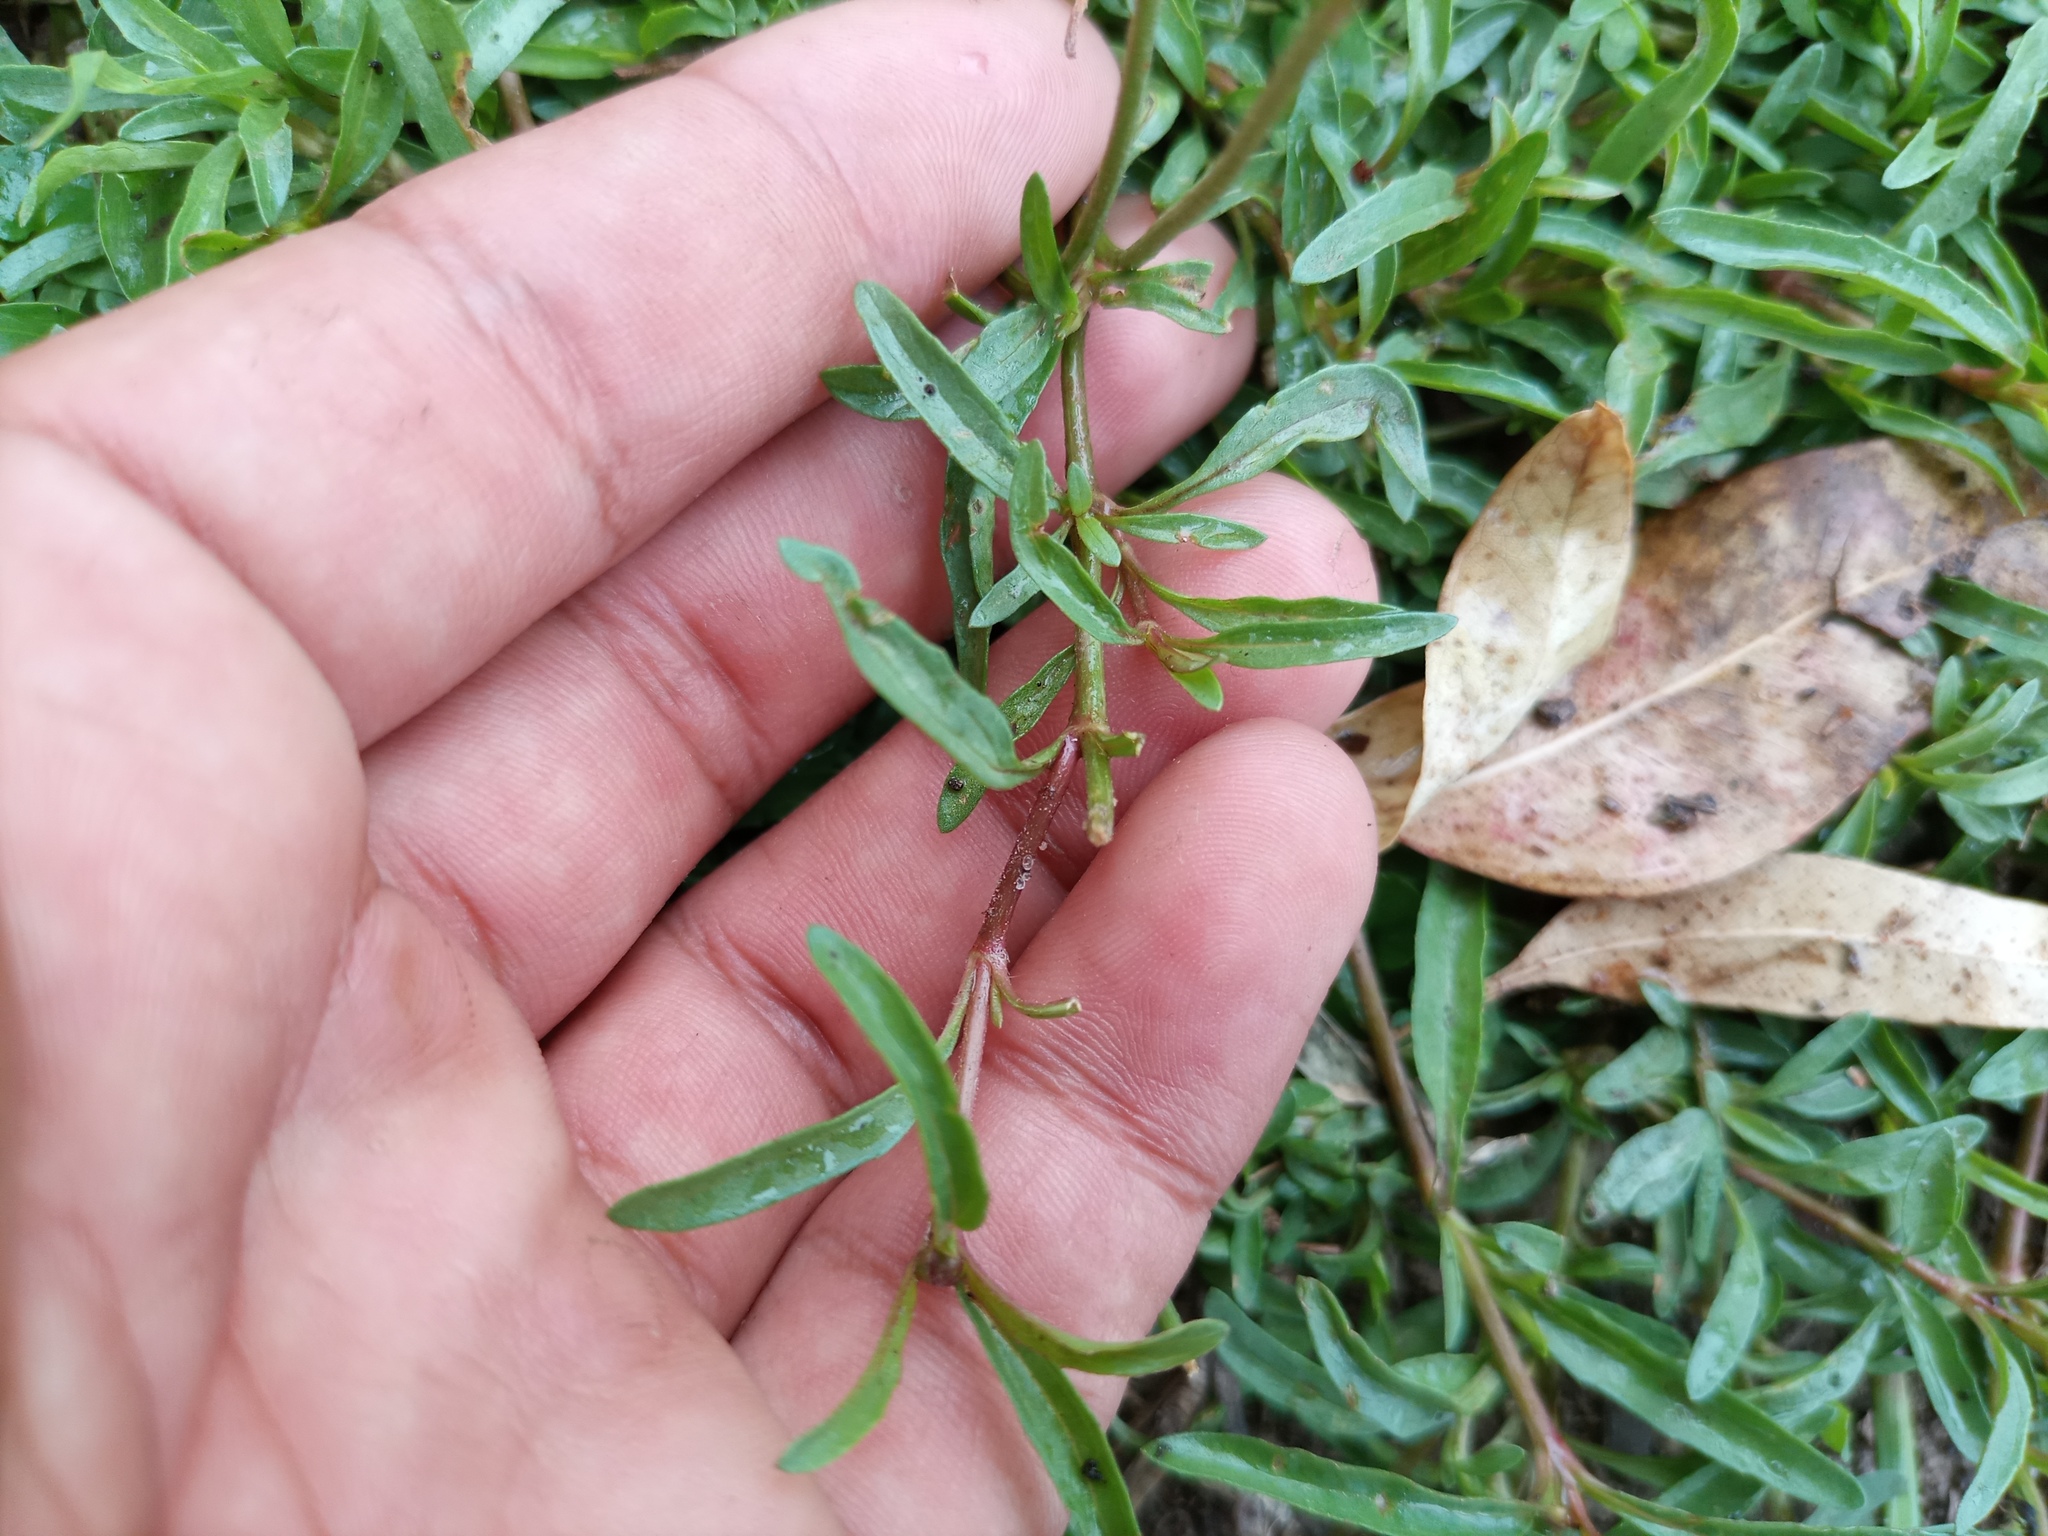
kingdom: Plantae
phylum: Tracheophyta
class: Magnoliopsida
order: Asterales
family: Asteraceae
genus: Acmella
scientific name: Acmella decumbens
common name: Creeping spotflower
